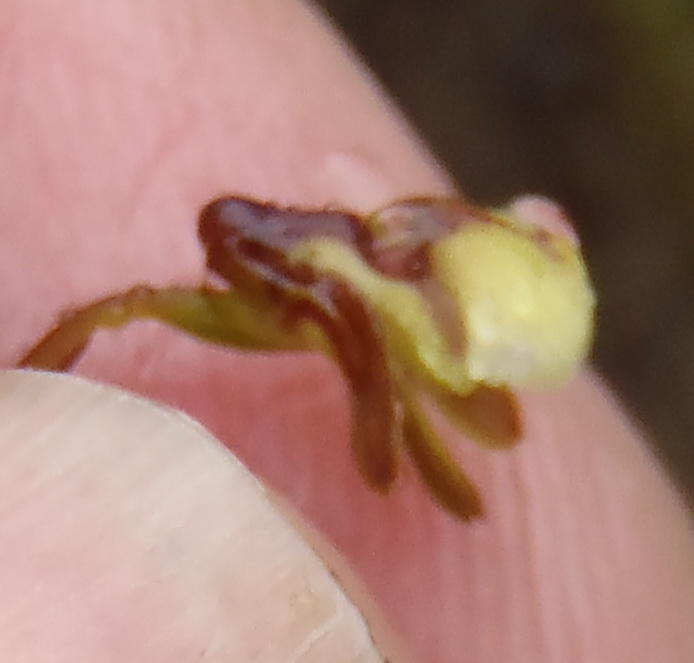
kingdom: Plantae
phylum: Tracheophyta
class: Liliopsida
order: Asparagales
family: Orchidaceae
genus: Eulophia
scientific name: Eulophia cochlearis
